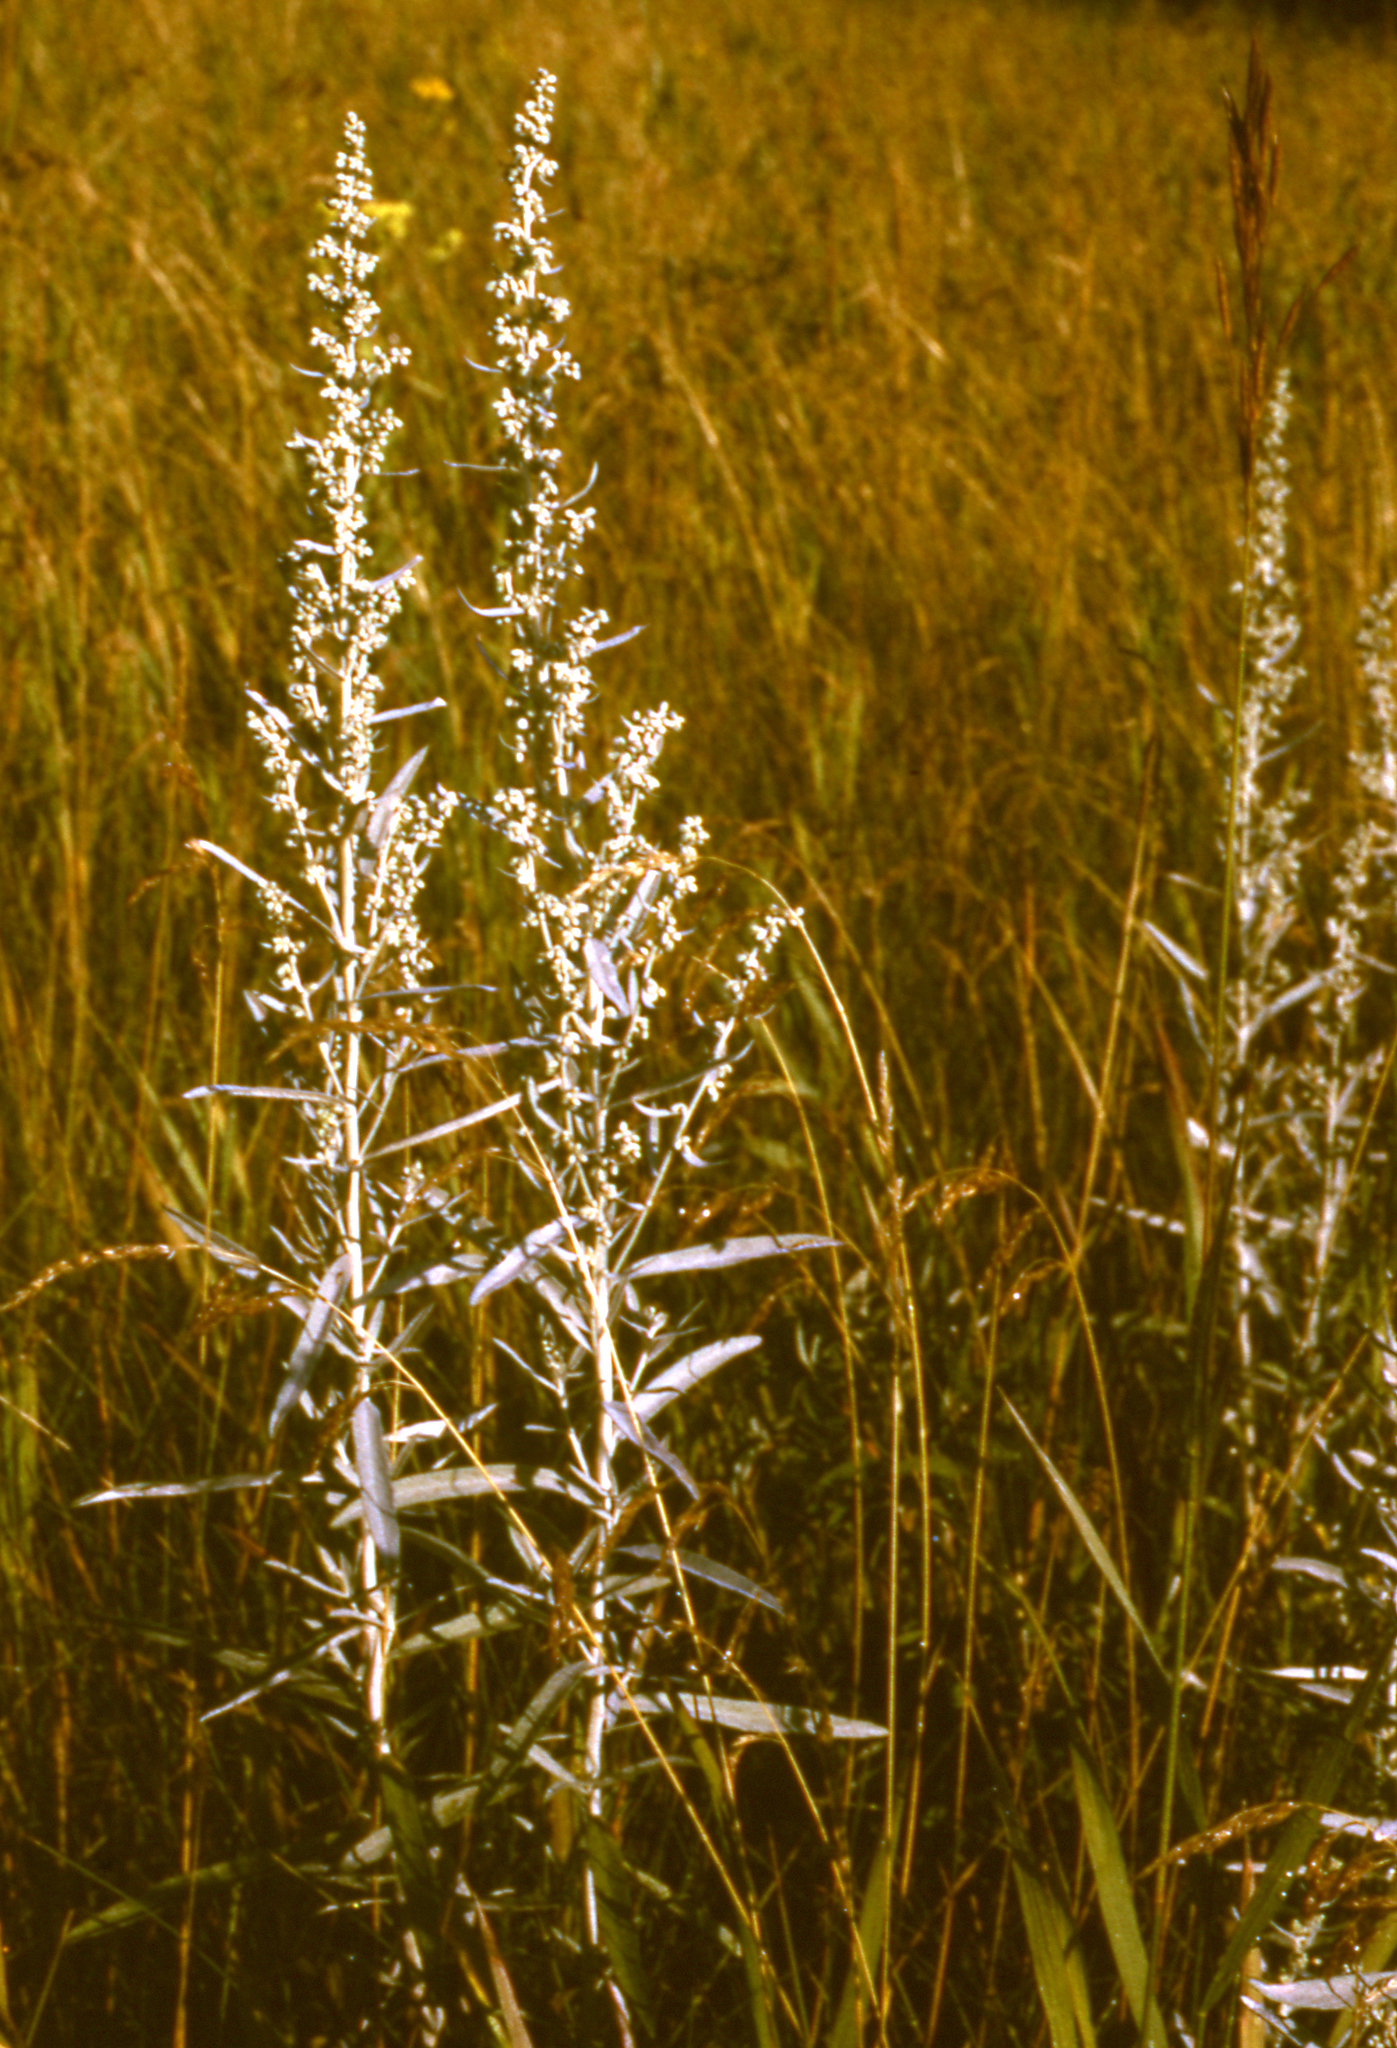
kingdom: Plantae
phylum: Tracheophyta
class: Magnoliopsida
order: Asterales
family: Asteraceae
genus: Artemisia
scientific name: Artemisia ludoviciana
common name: Western mugwort
